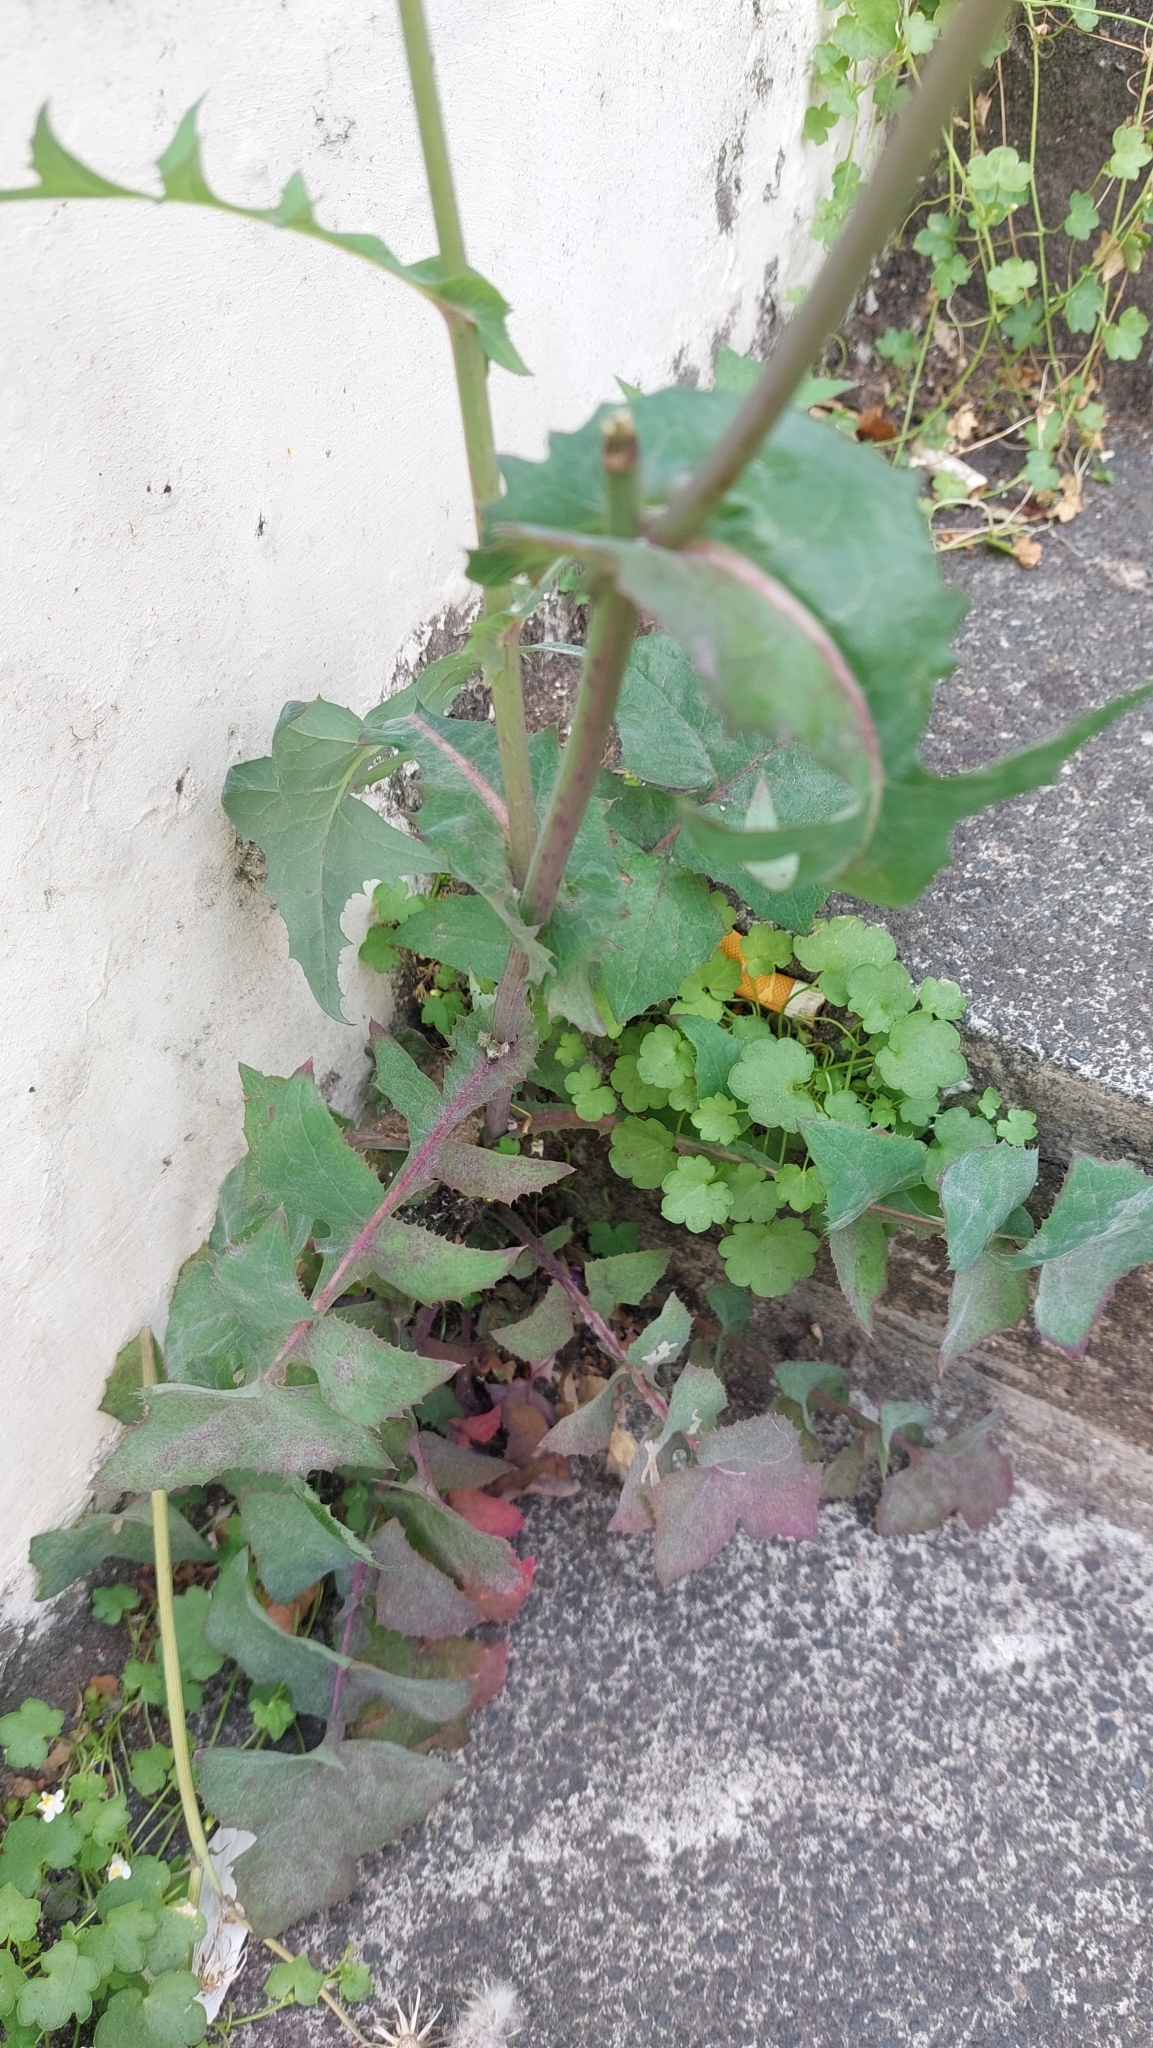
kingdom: Plantae
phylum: Tracheophyta
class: Magnoliopsida
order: Asterales
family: Asteraceae
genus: Sonchus
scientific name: Sonchus oleraceus
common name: Common sowthistle
